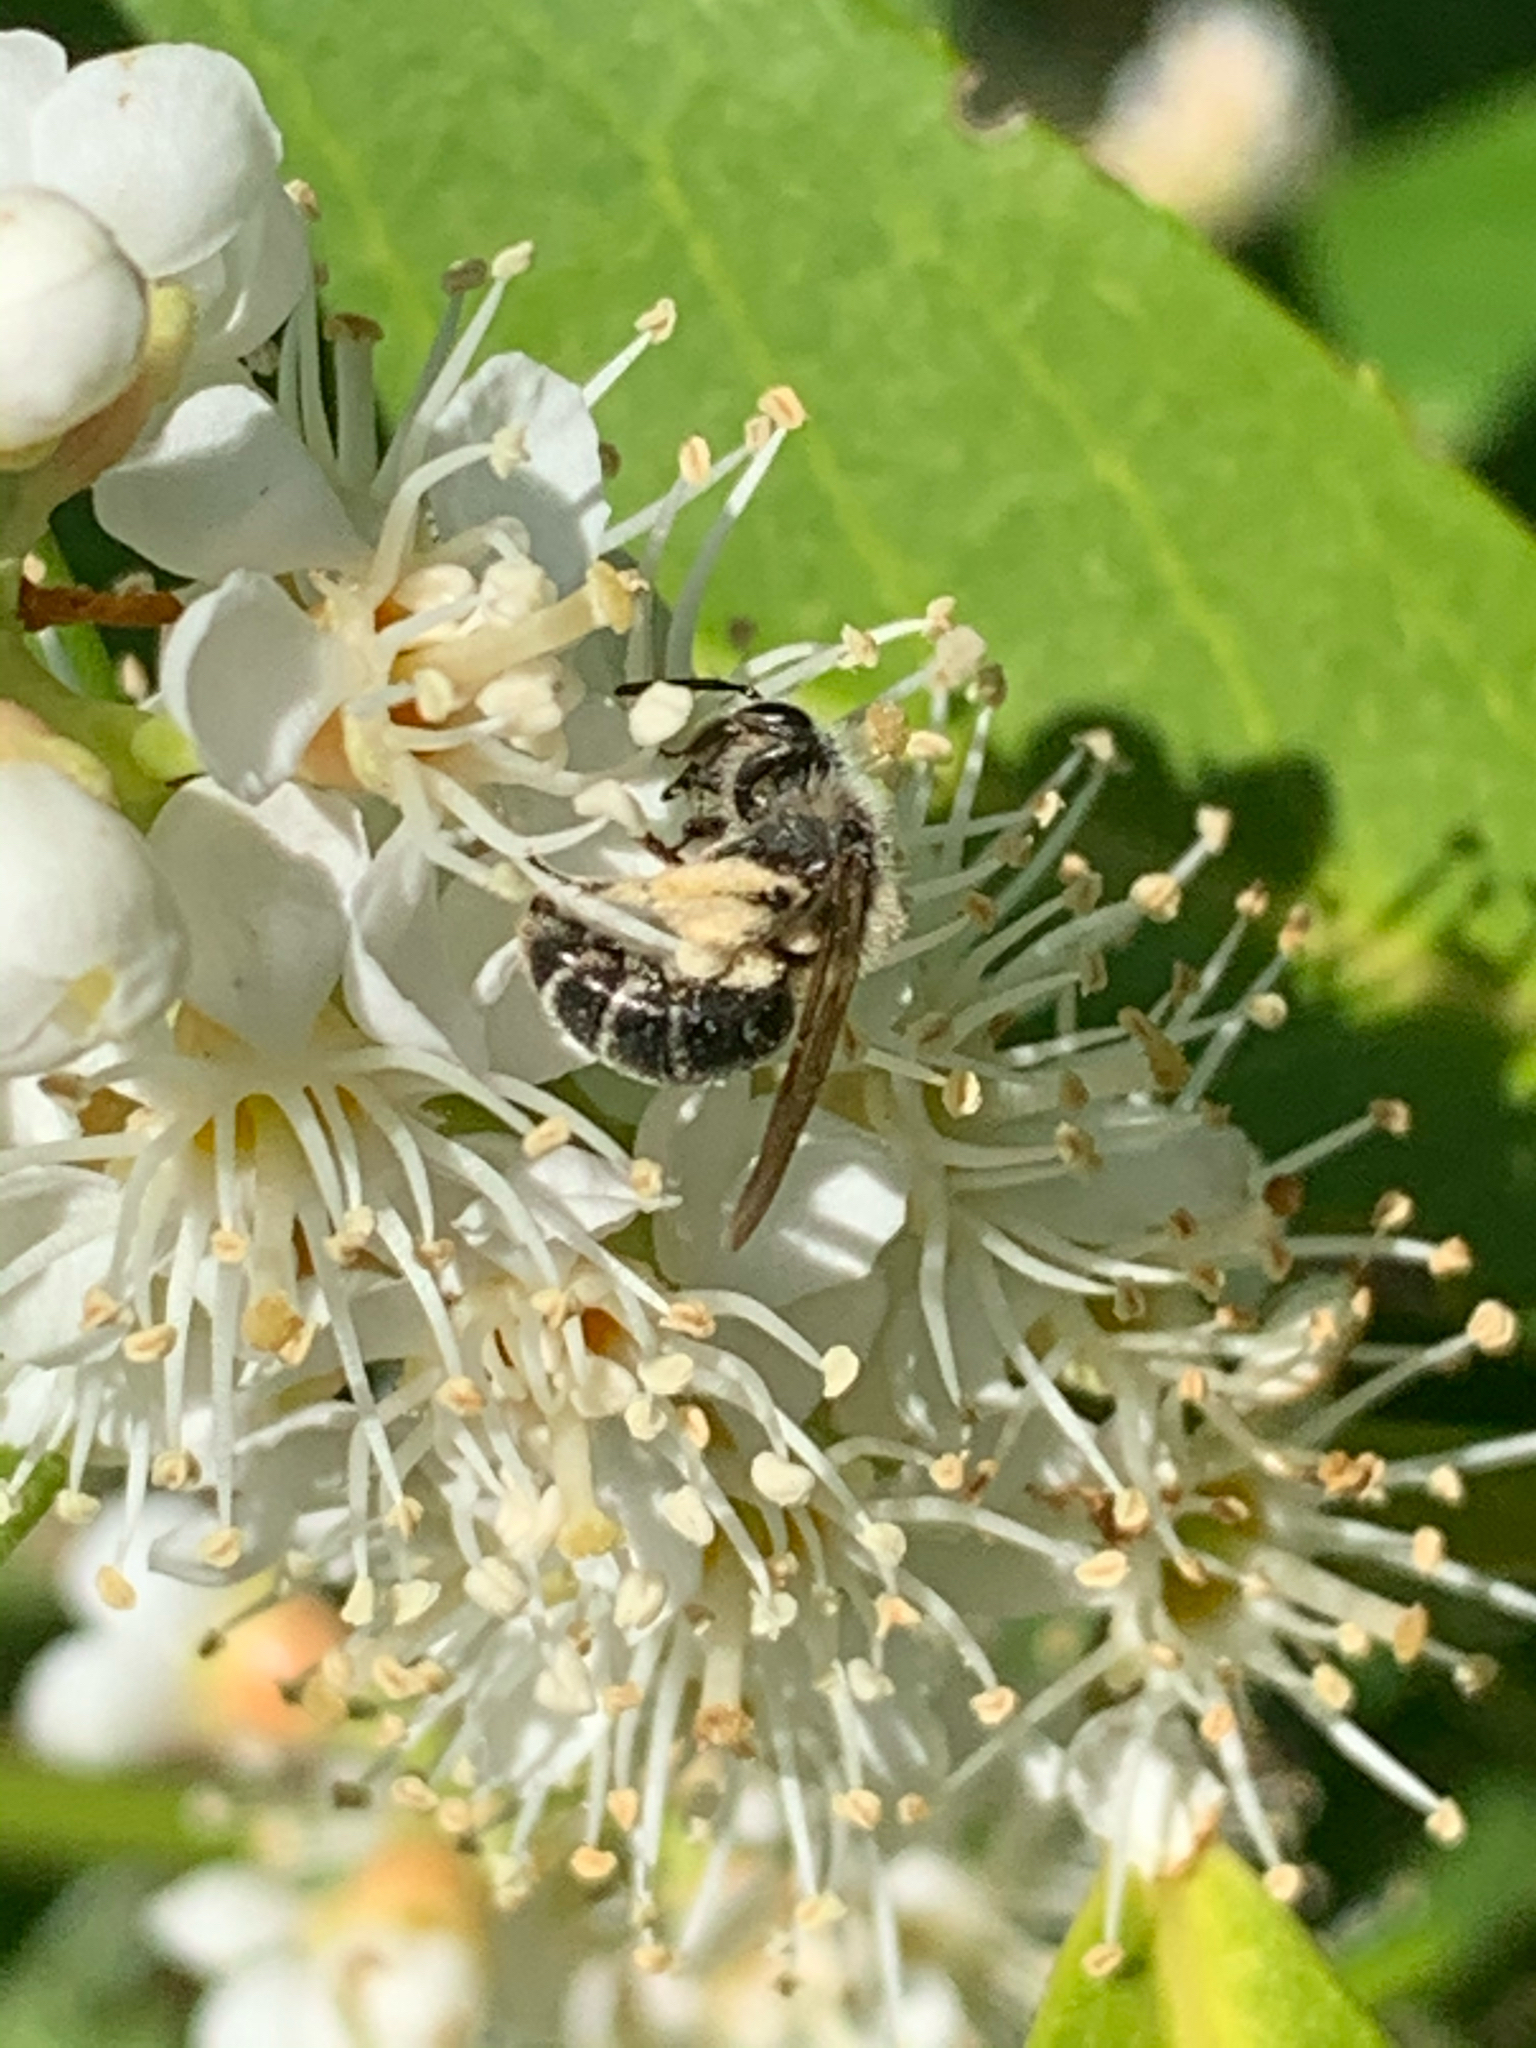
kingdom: Animalia
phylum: Arthropoda
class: Insecta
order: Hymenoptera
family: Andrenidae
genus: Andrena
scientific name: Andrena
